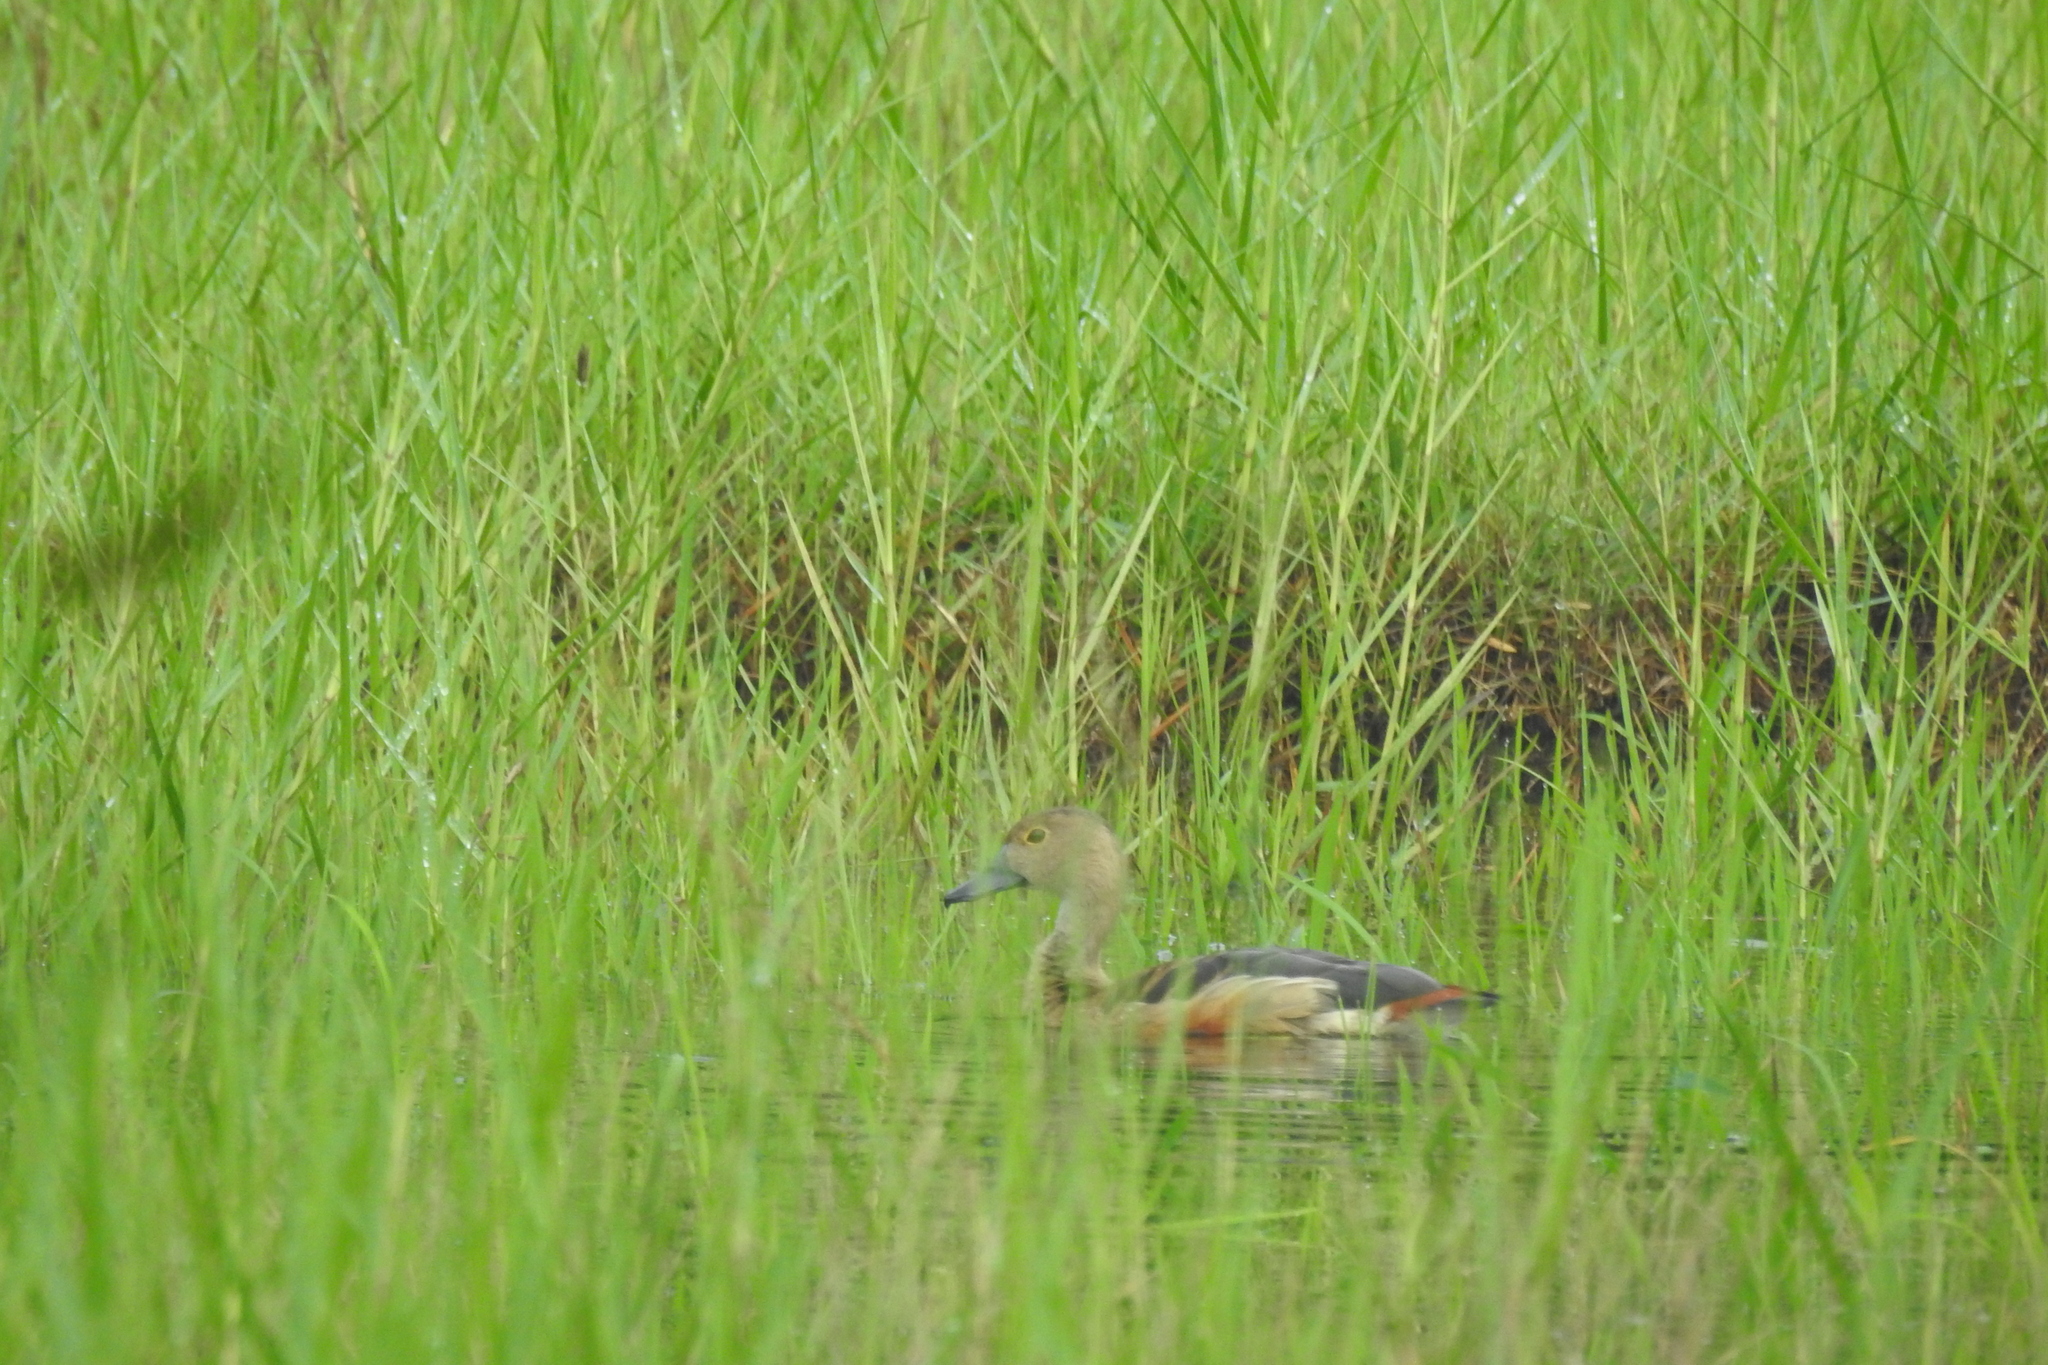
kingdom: Animalia
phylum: Chordata
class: Aves
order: Anseriformes
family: Anatidae
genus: Dendrocygna
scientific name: Dendrocygna javanica
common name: Lesser whistling-duck
